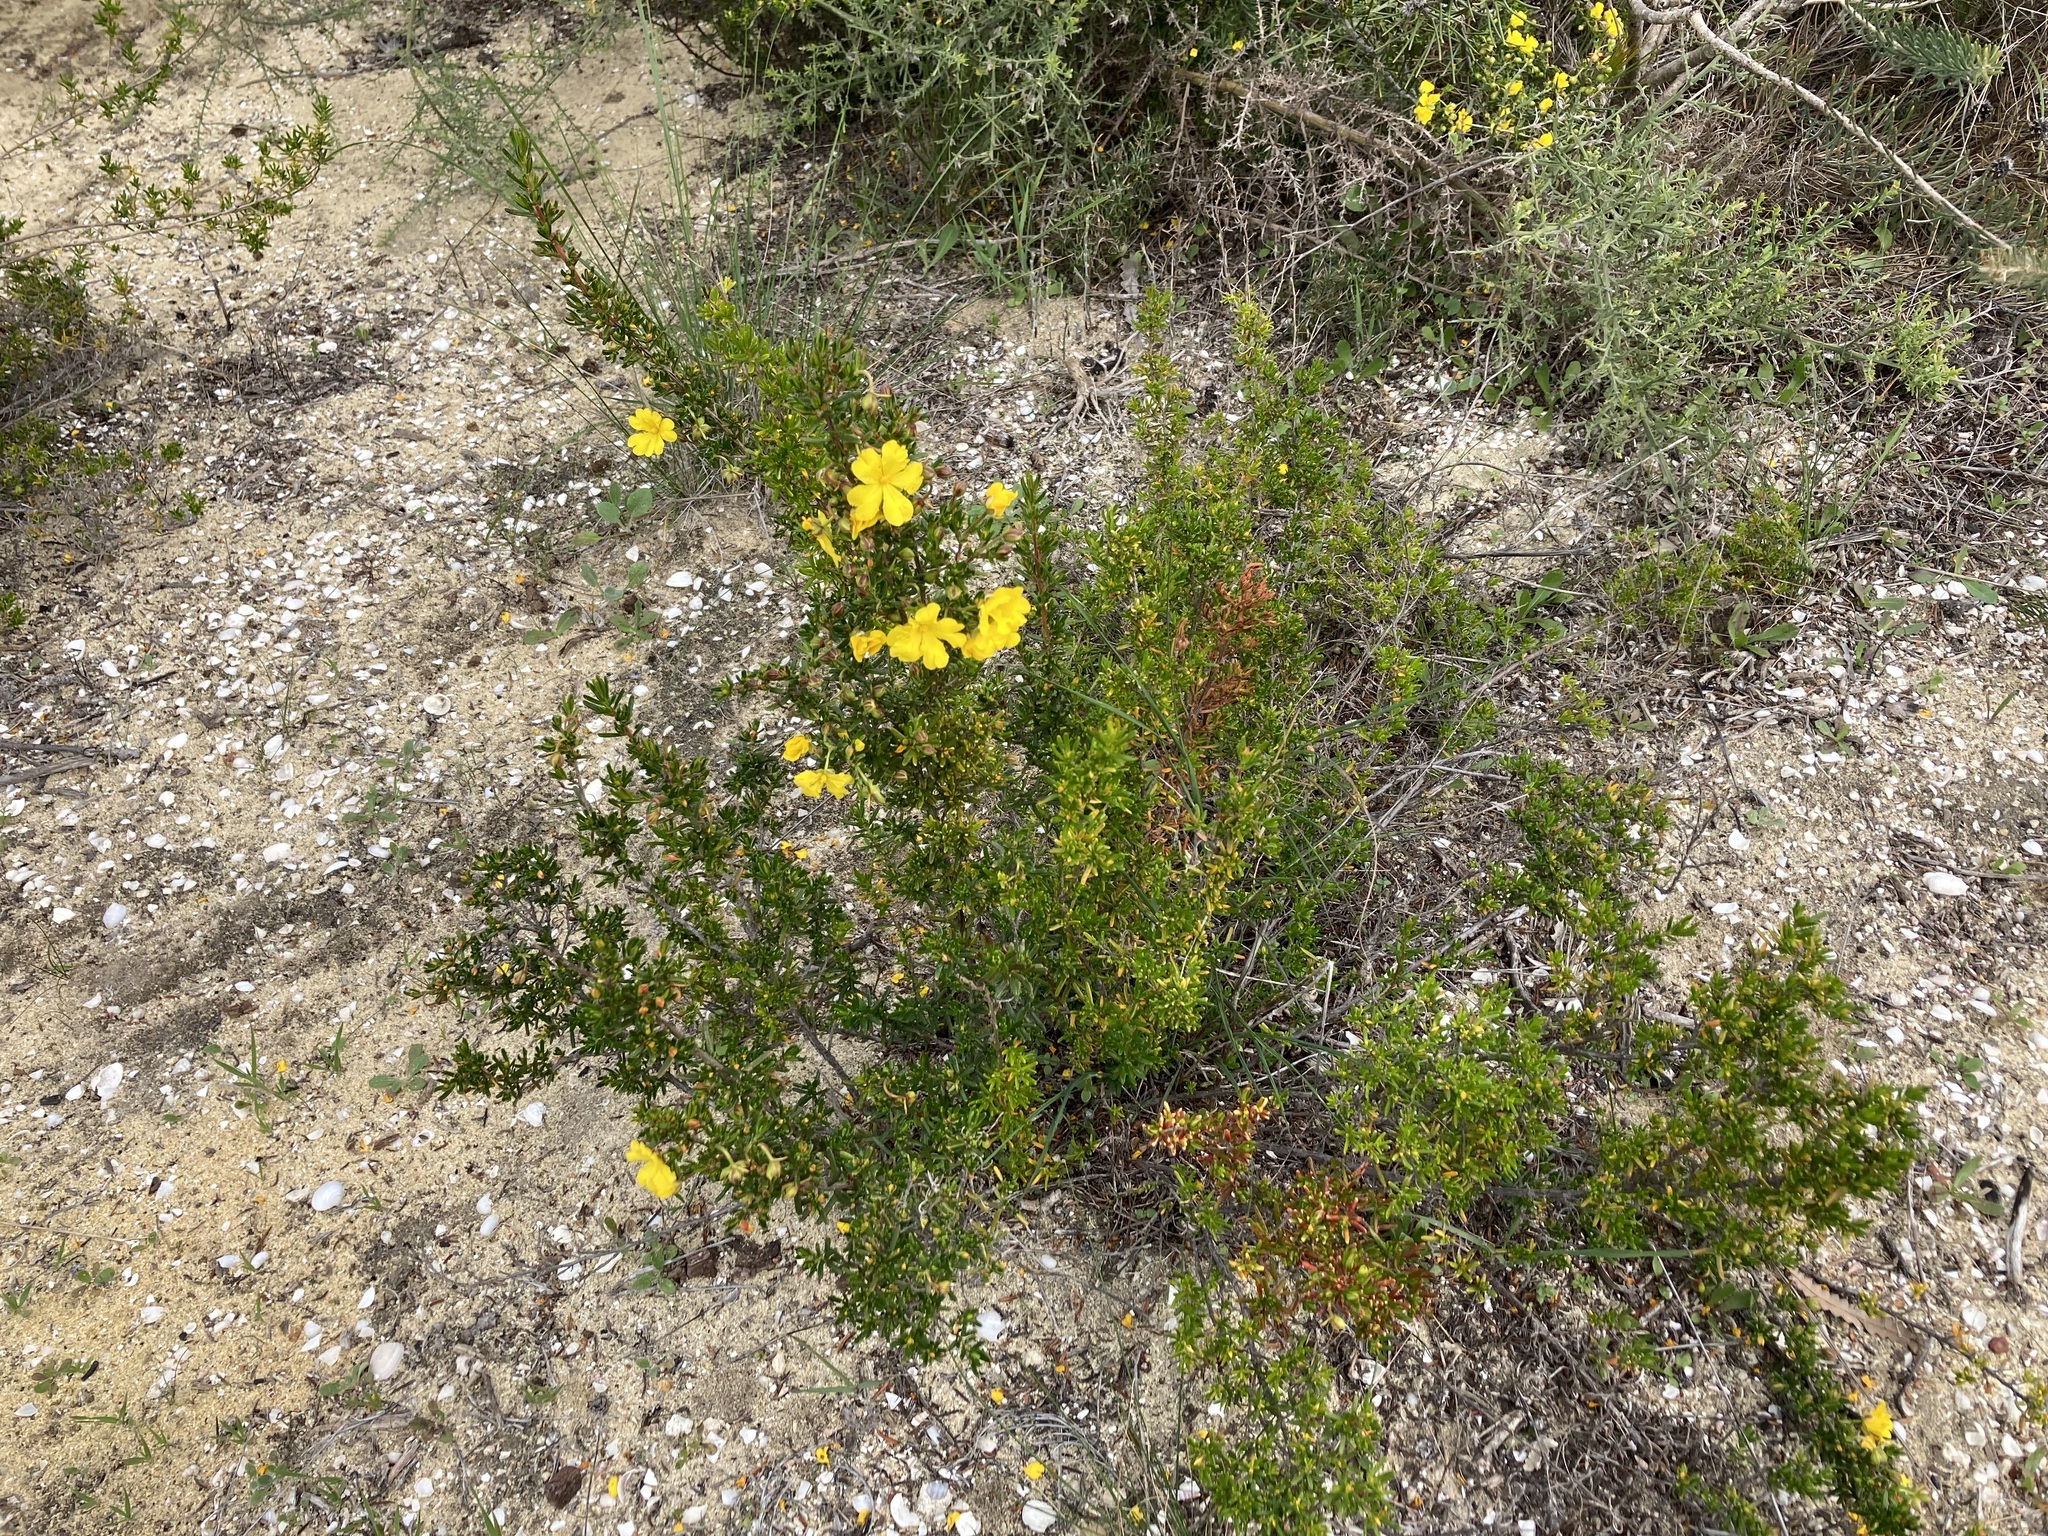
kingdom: Plantae
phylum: Tracheophyta
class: Magnoliopsida
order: Dilleniales
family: Dilleniaceae
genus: Hibbertia
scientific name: Hibbertia hypericoides
